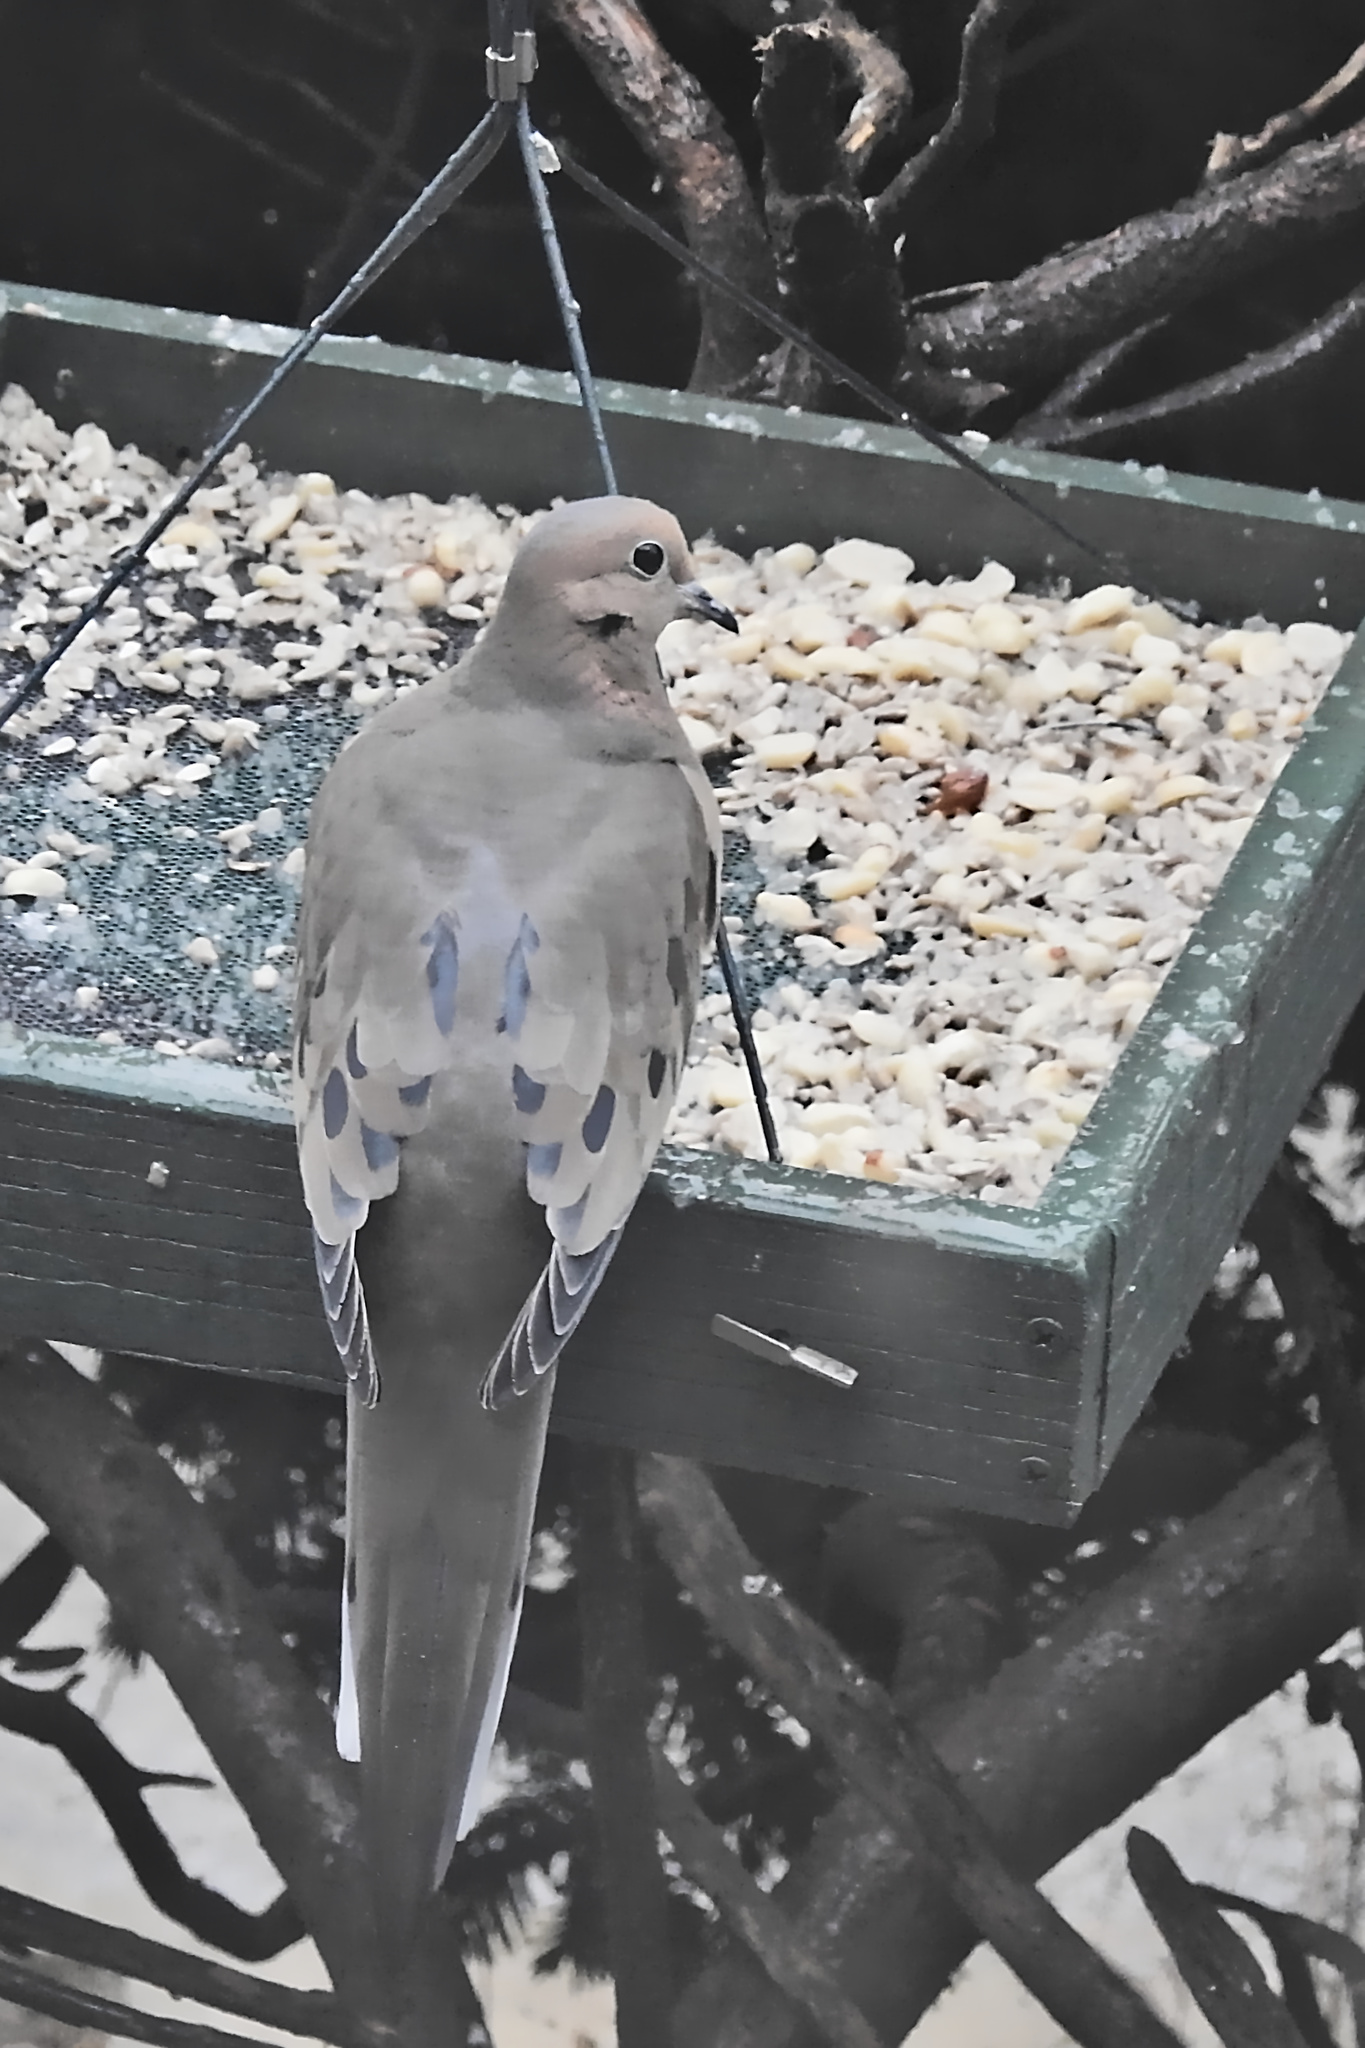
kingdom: Animalia
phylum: Chordata
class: Aves
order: Columbiformes
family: Columbidae
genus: Zenaida
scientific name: Zenaida macroura
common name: Mourning dove
